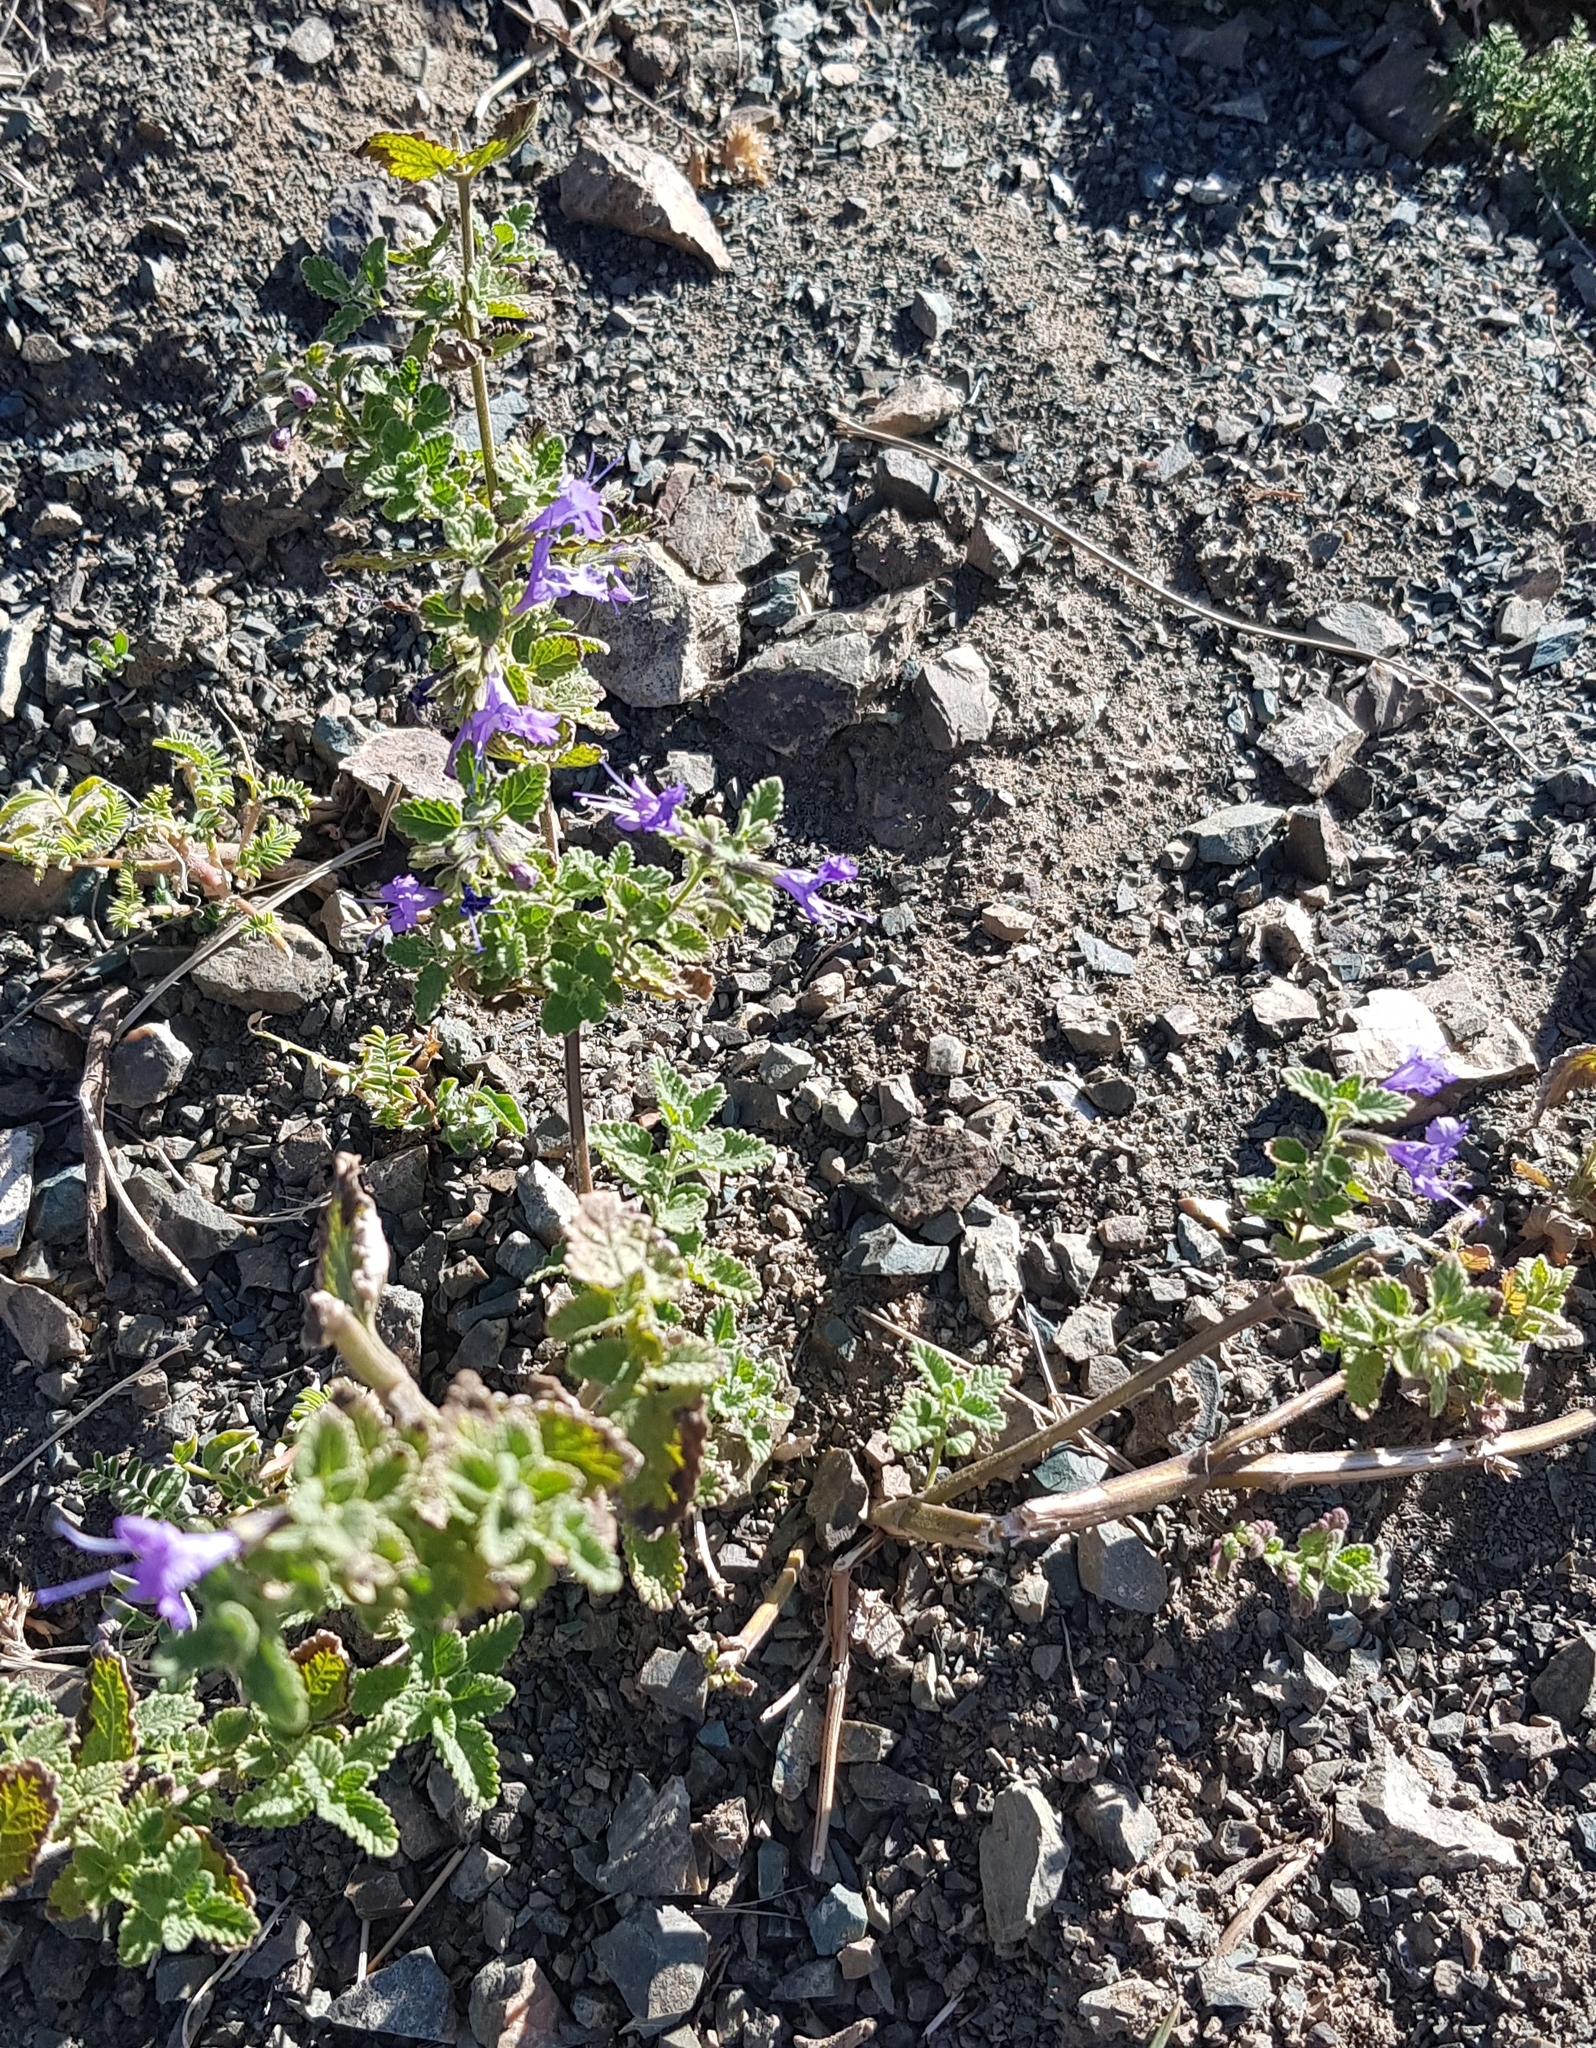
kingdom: Plantae
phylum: Tracheophyta
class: Magnoliopsida
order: Lamiales
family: Lamiaceae
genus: Dracocephalum
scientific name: Dracocephalum nutans
